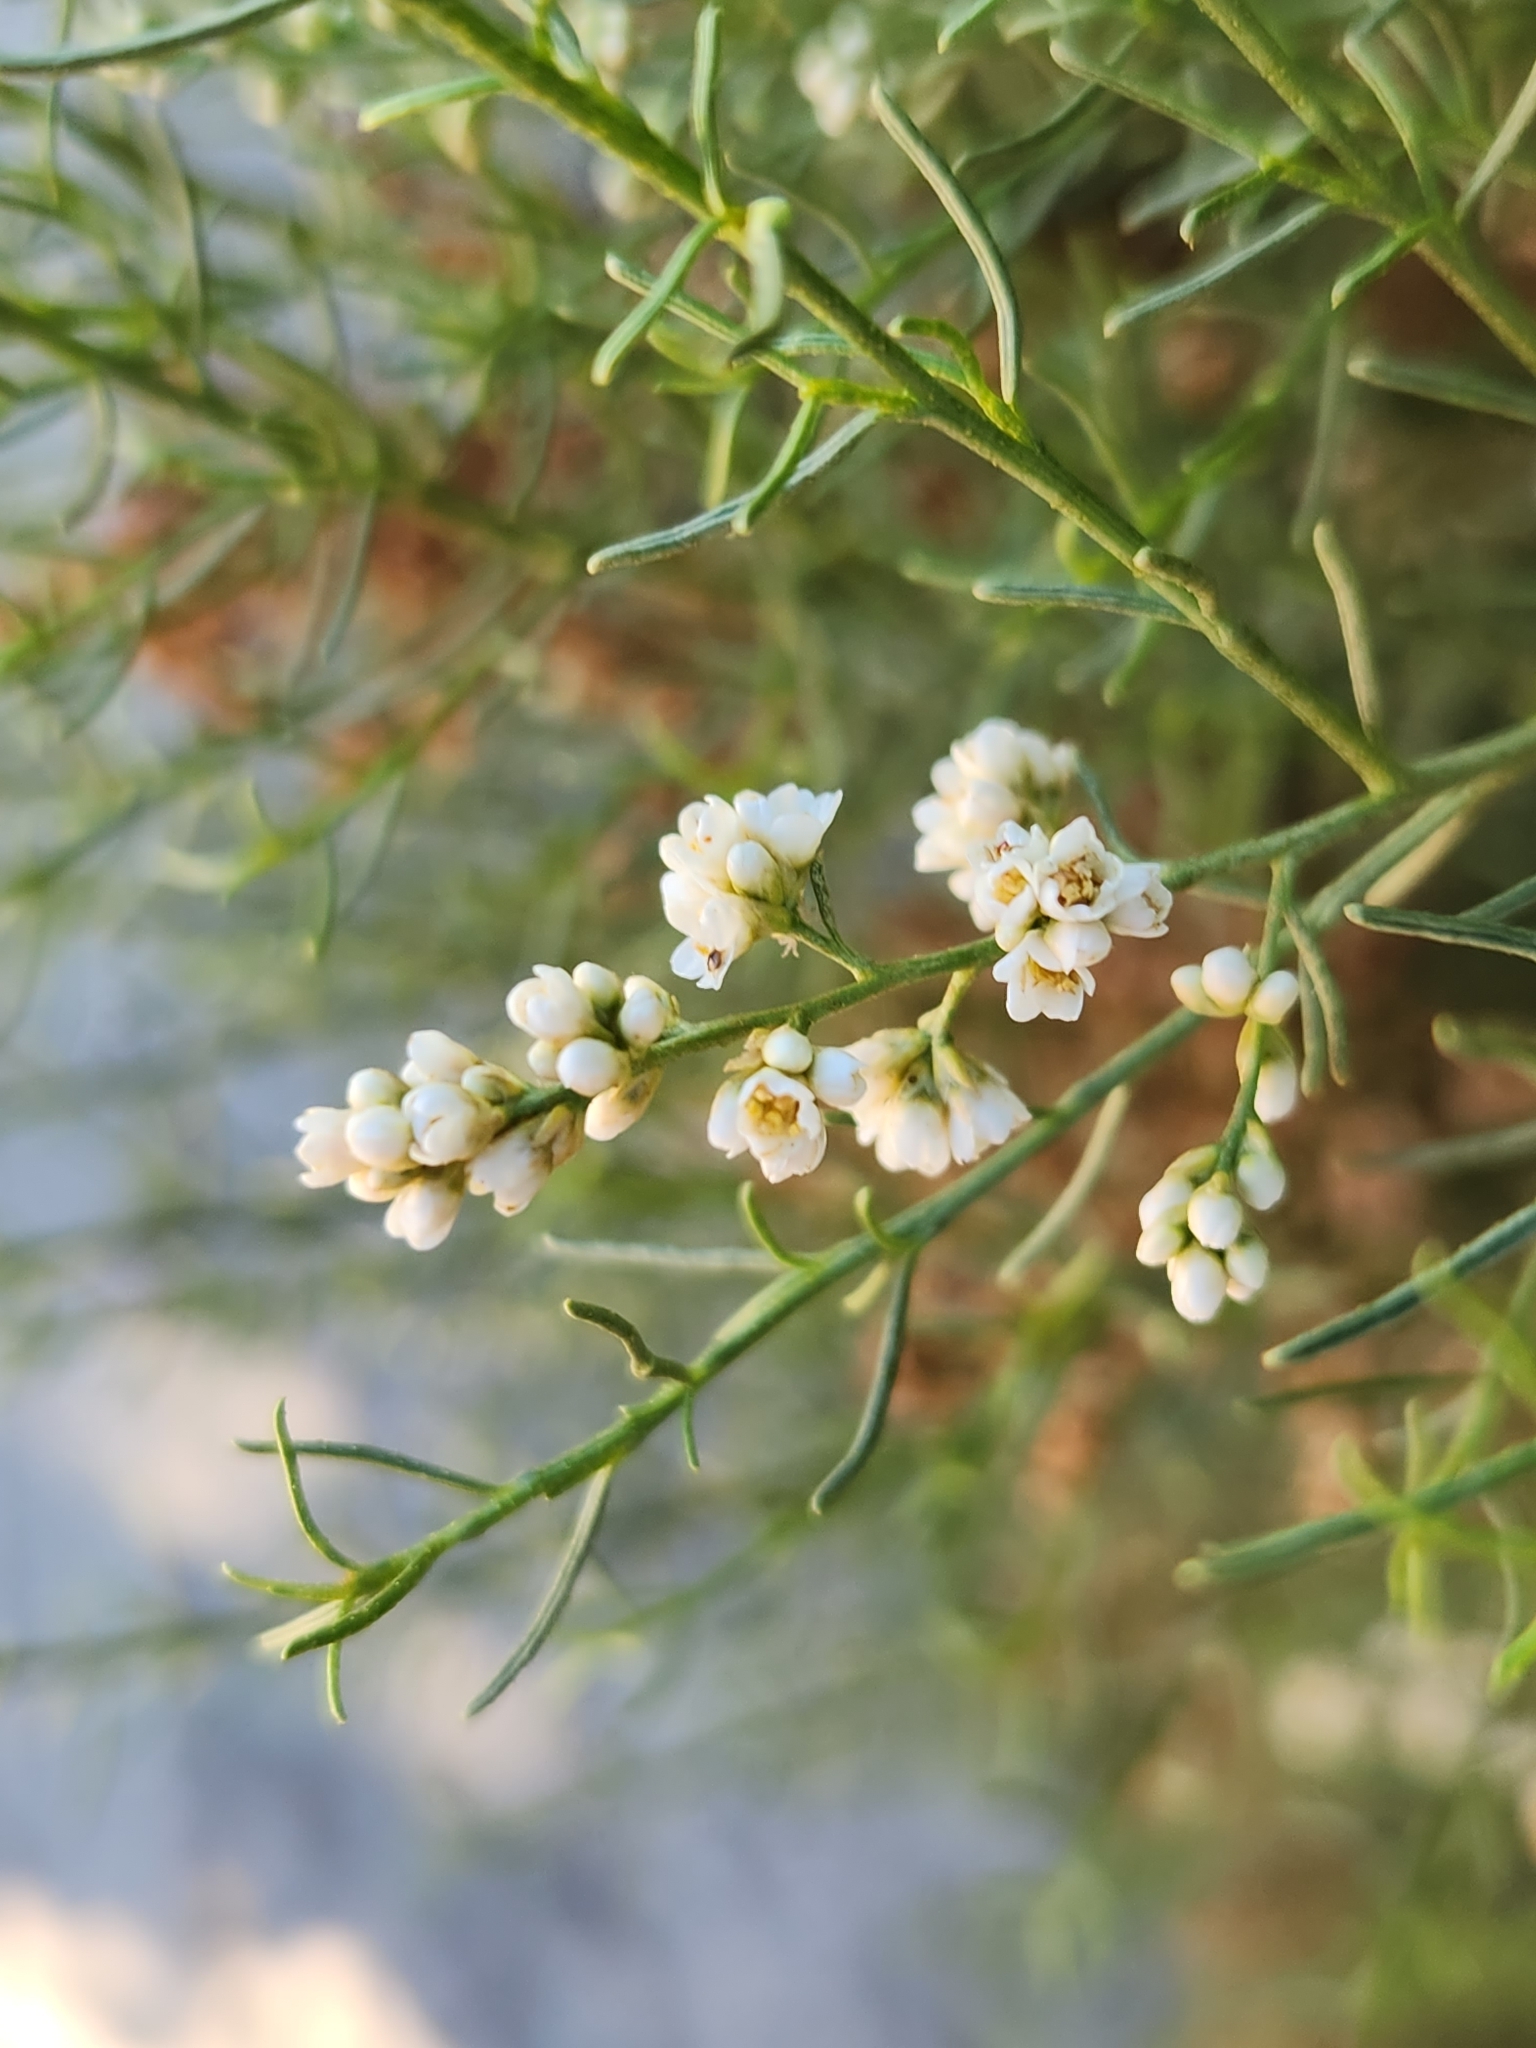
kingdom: Plantae
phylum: Tracheophyta
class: Magnoliopsida
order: Rosales
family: Rosaceae
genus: Adenostoma
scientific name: Adenostoma sparsifolium
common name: Red shank
